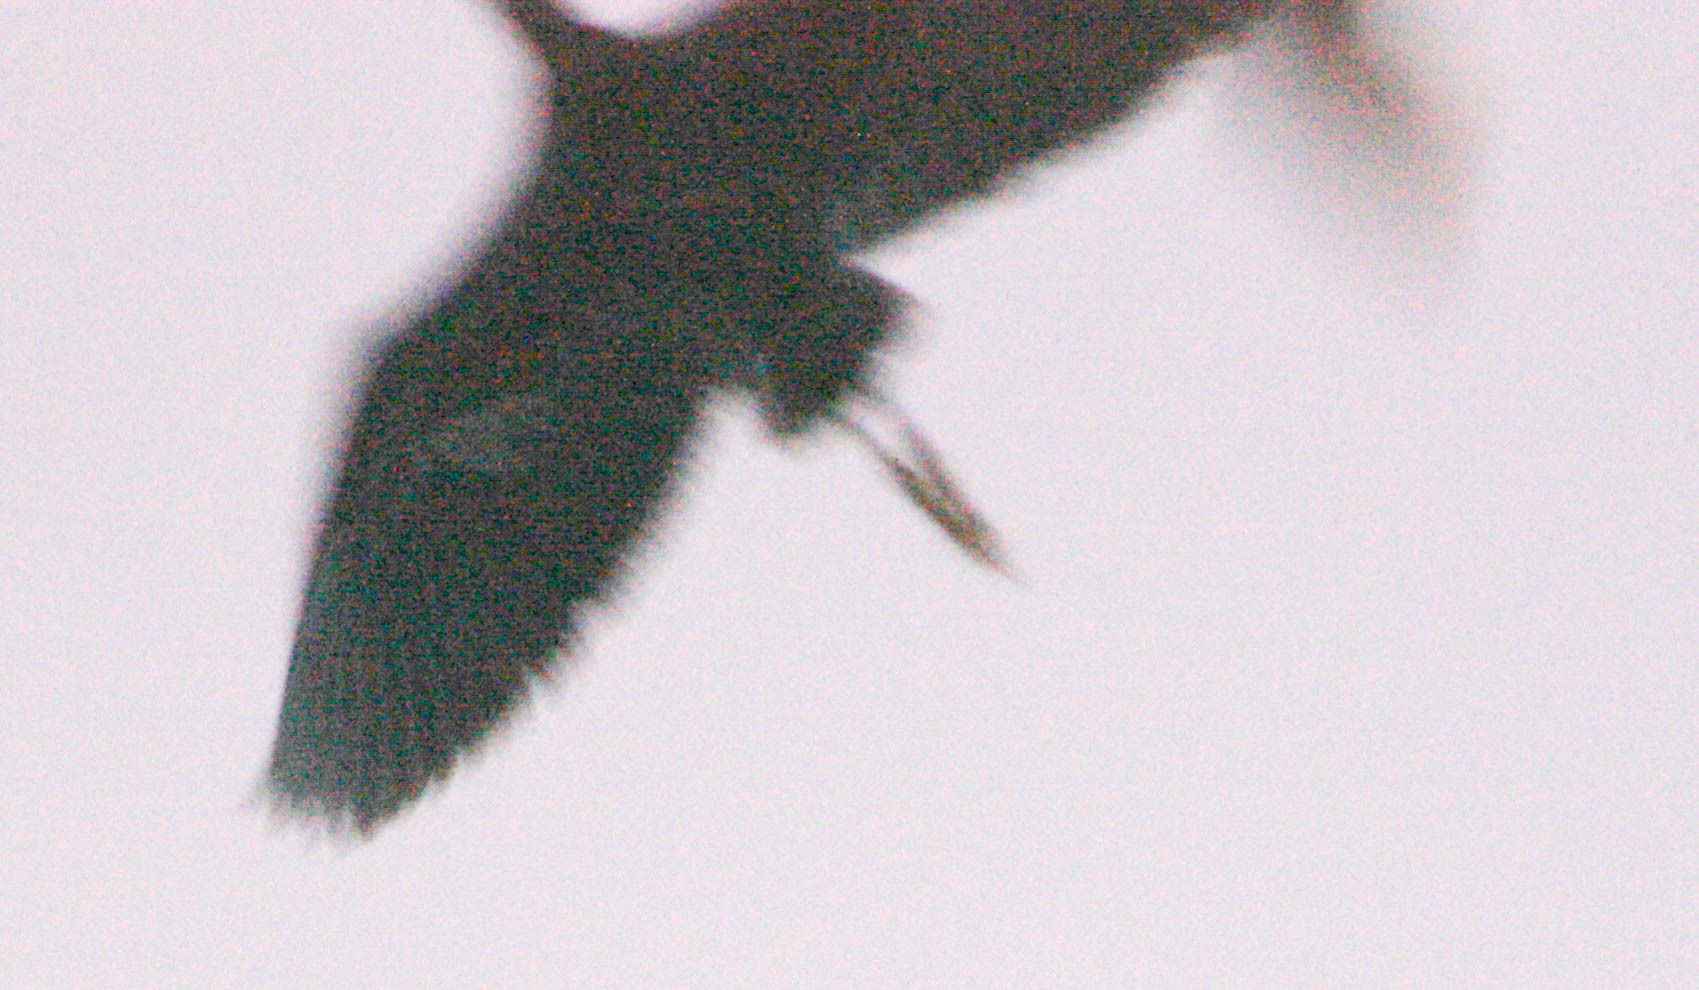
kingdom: Animalia
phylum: Chordata
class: Aves
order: Pelecaniformes
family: Ardeidae
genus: Egretta
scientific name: Egretta ardesiaca
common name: Black heron
